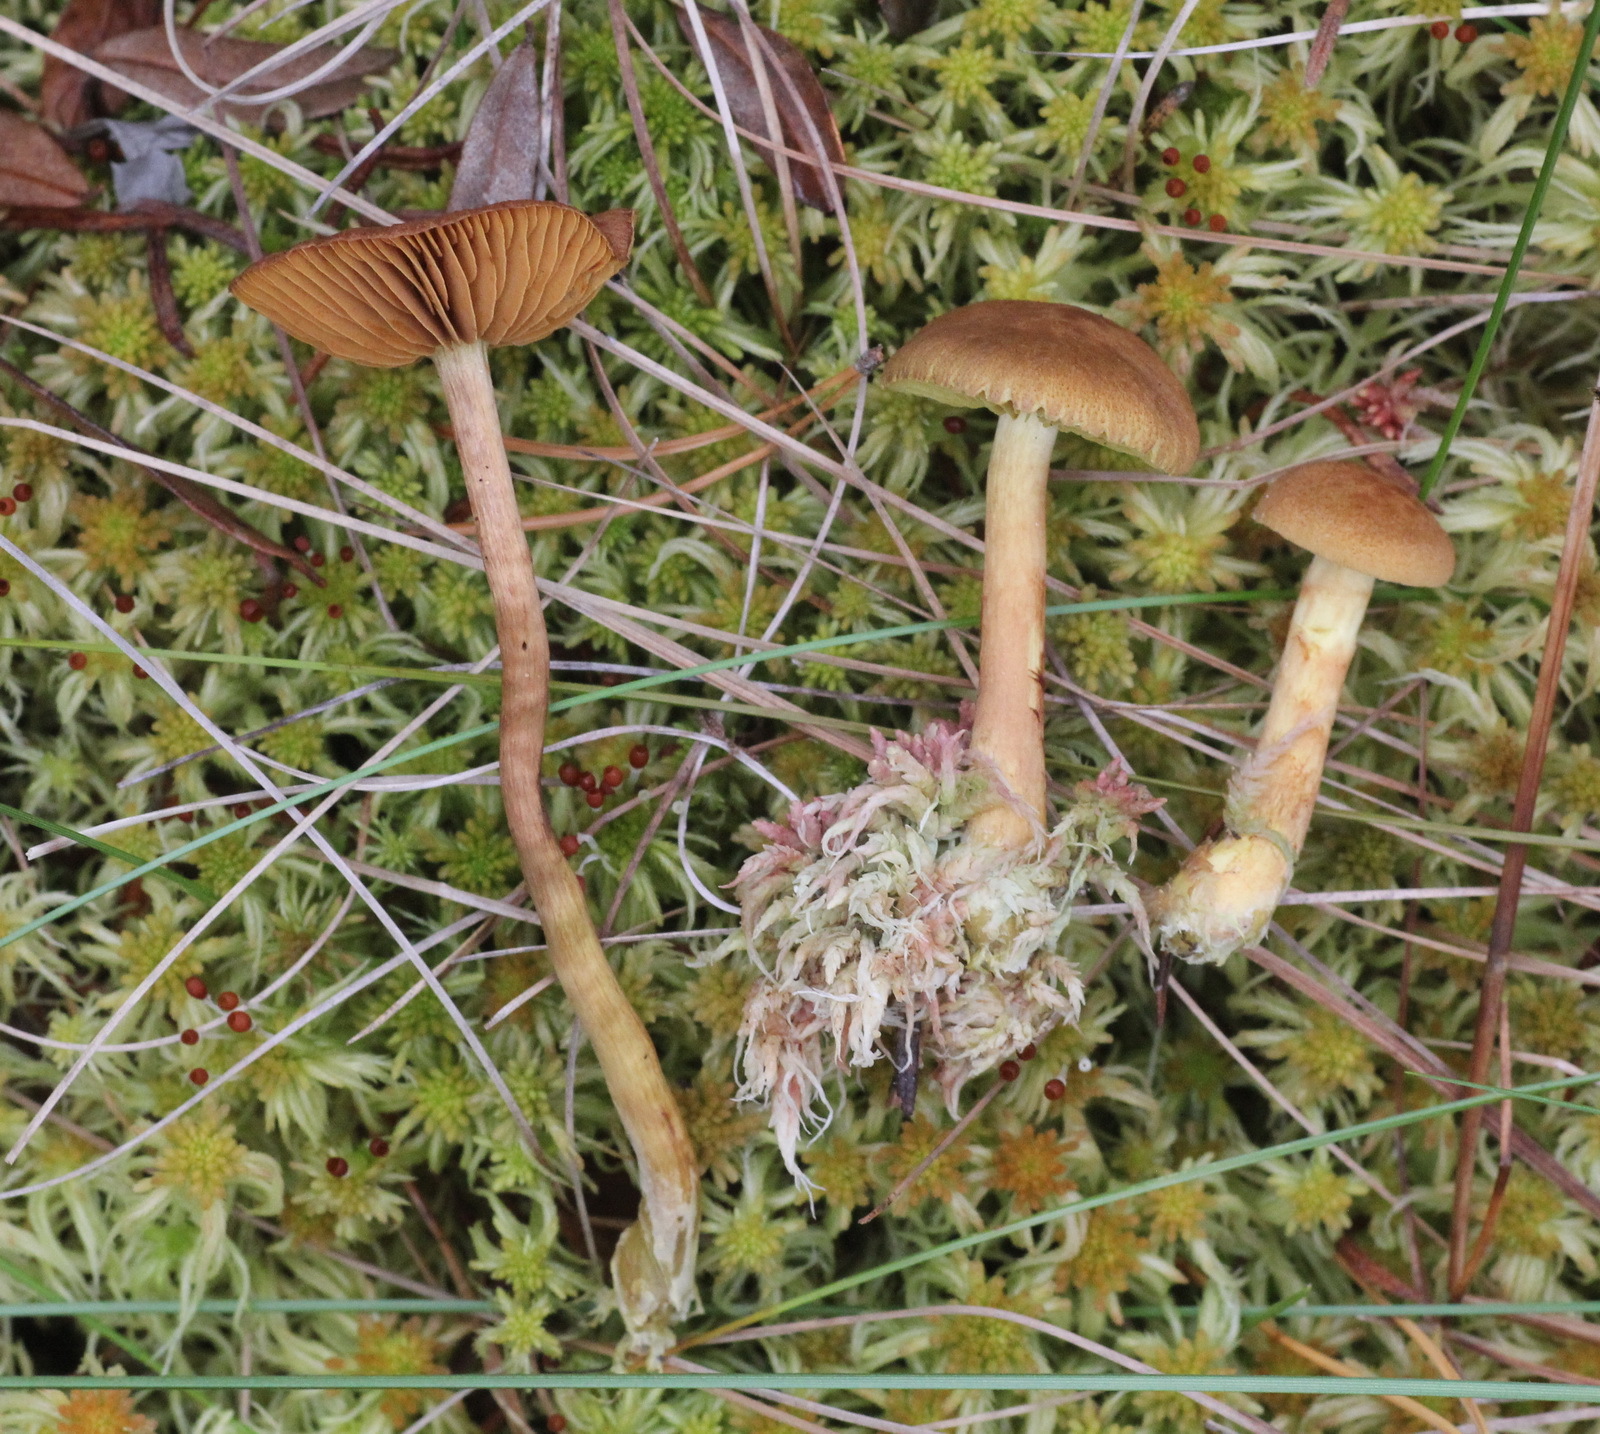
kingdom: Fungi
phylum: Basidiomycota
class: Agaricomycetes
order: Agaricales
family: Cortinariaceae
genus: Cortinarius
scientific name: Cortinarius tubarius
